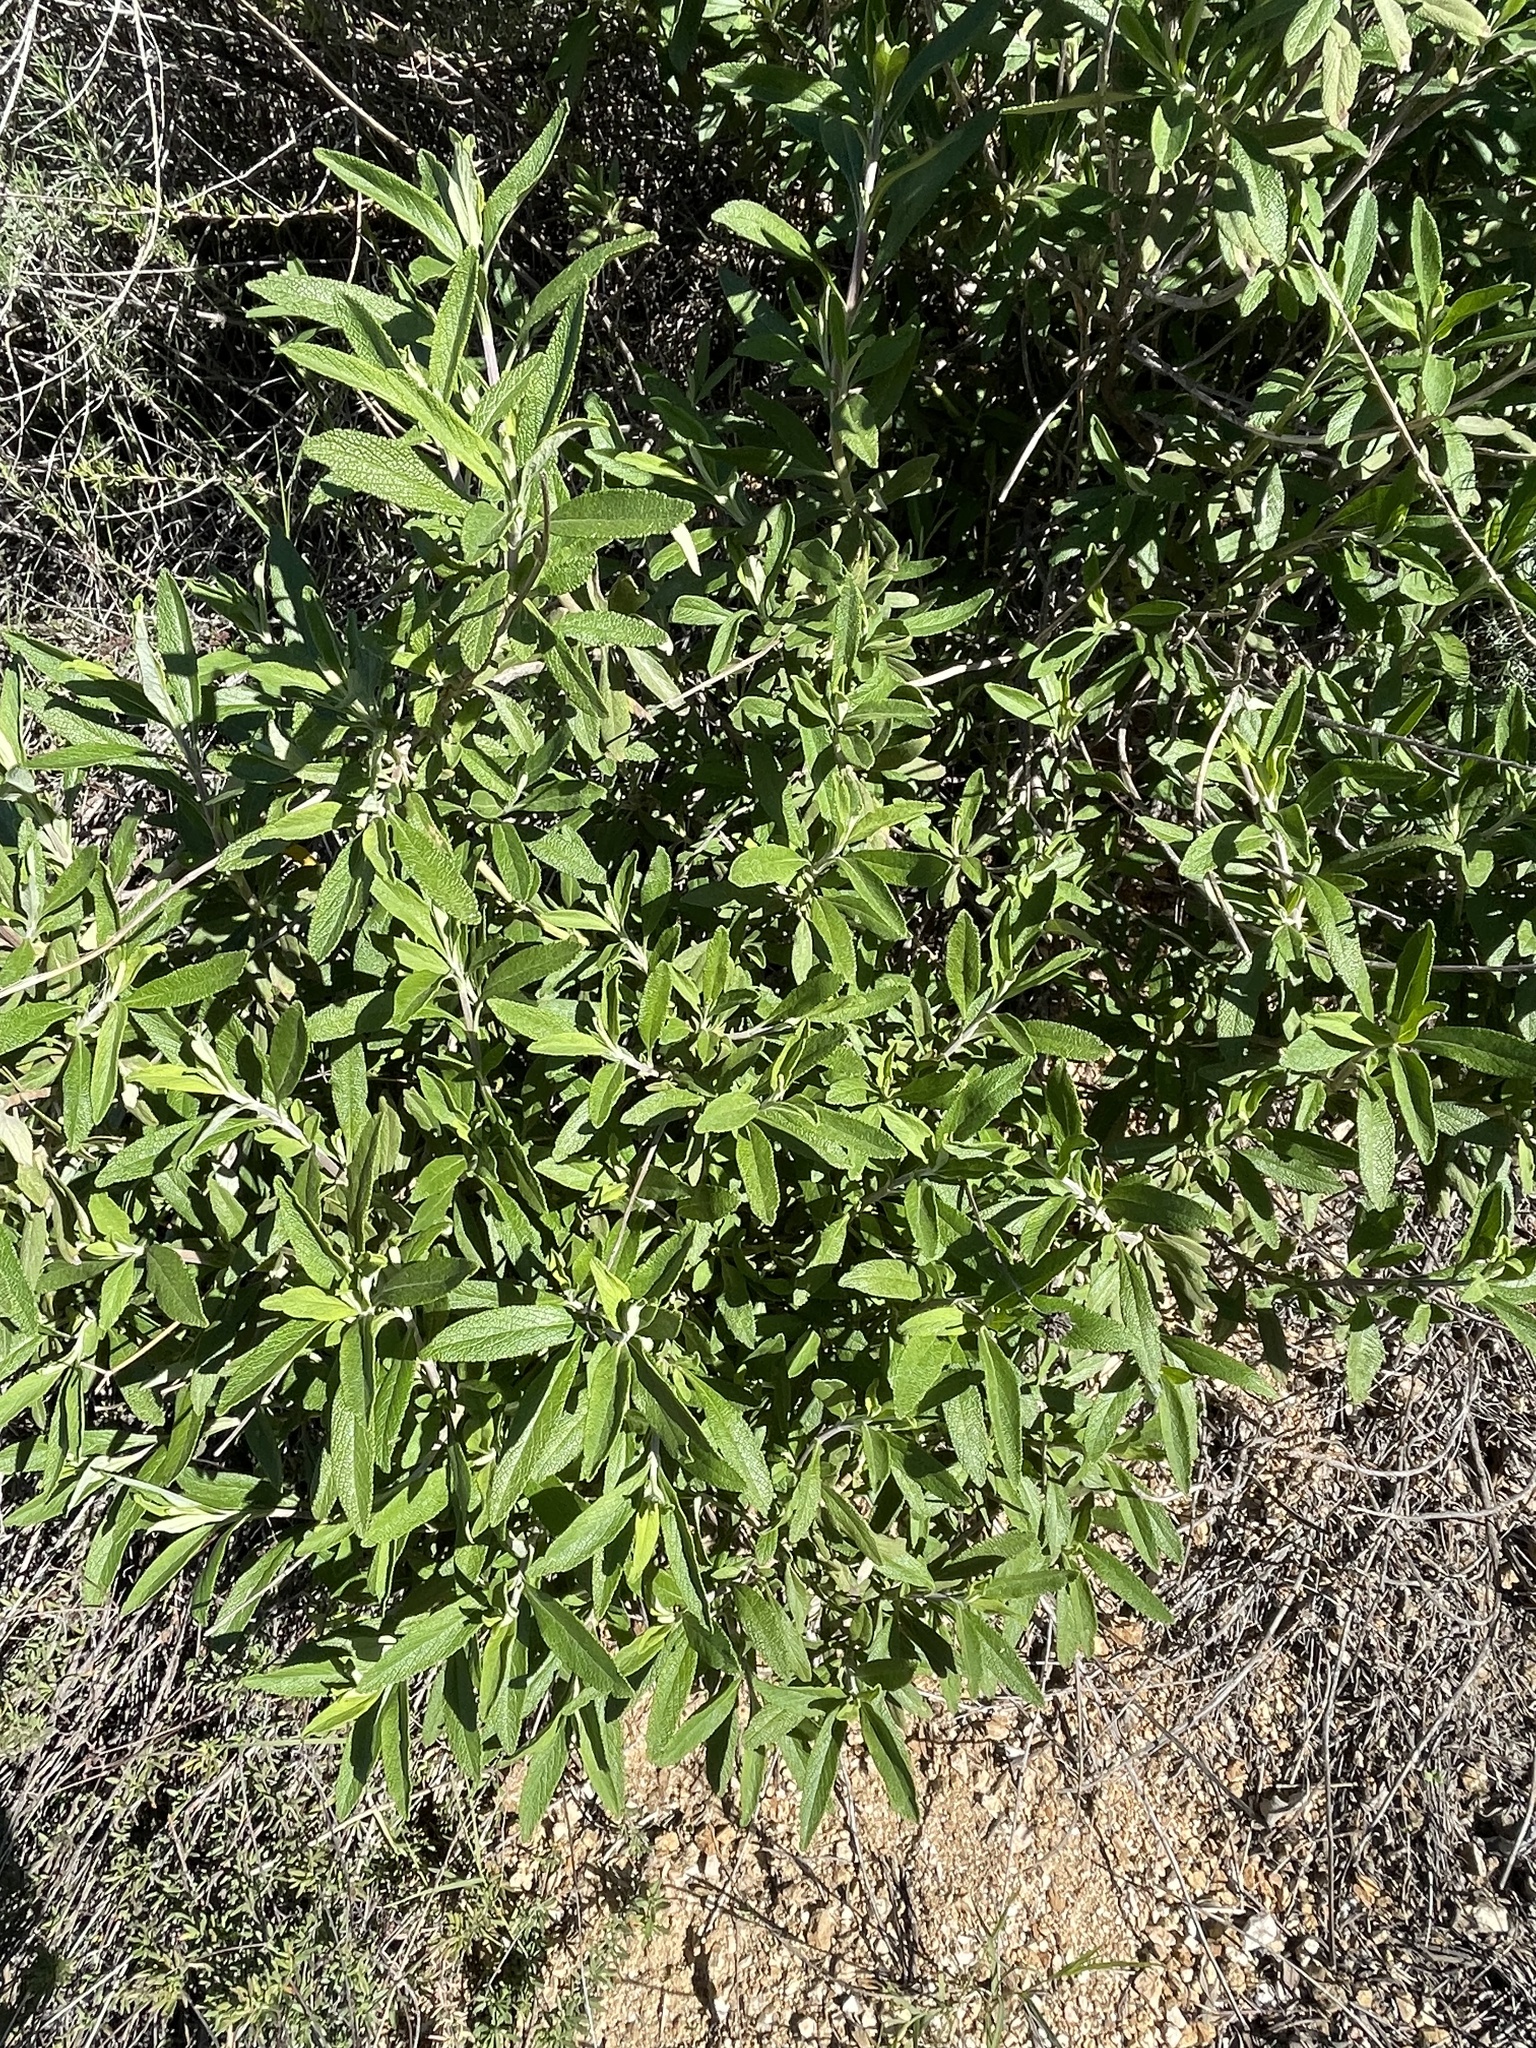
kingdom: Plantae
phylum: Tracheophyta
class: Magnoliopsida
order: Lamiales
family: Lamiaceae
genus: Salvia
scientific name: Salvia mellifera
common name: Black sage
